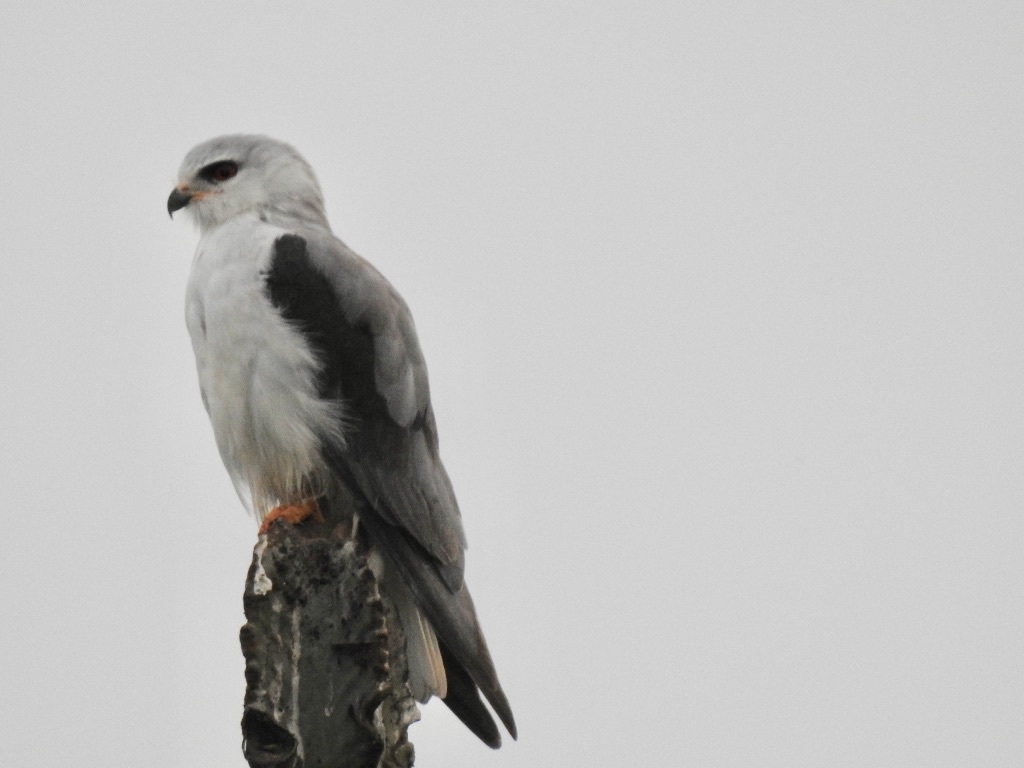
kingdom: Animalia
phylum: Chordata
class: Aves
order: Accipitriformes
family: Accipitridae
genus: Elanus
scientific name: Elanus caeruleus
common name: Black-winged kite
